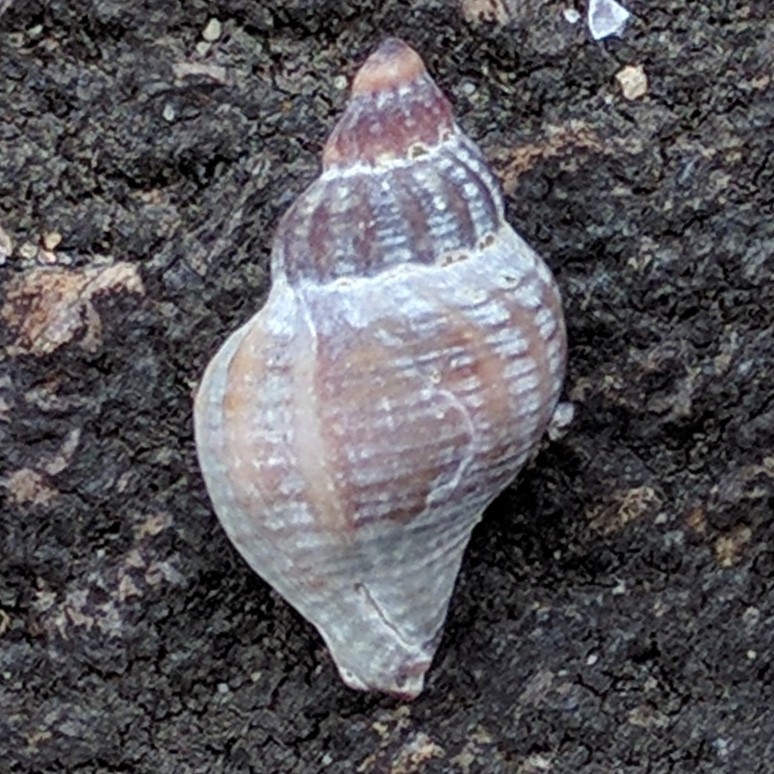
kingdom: Animalia
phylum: Mollusca
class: Gastropoda
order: Neogastropoda
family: Muricidae
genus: Urosalpinx
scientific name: Urosalpinx cinerea
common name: American sting winkle
